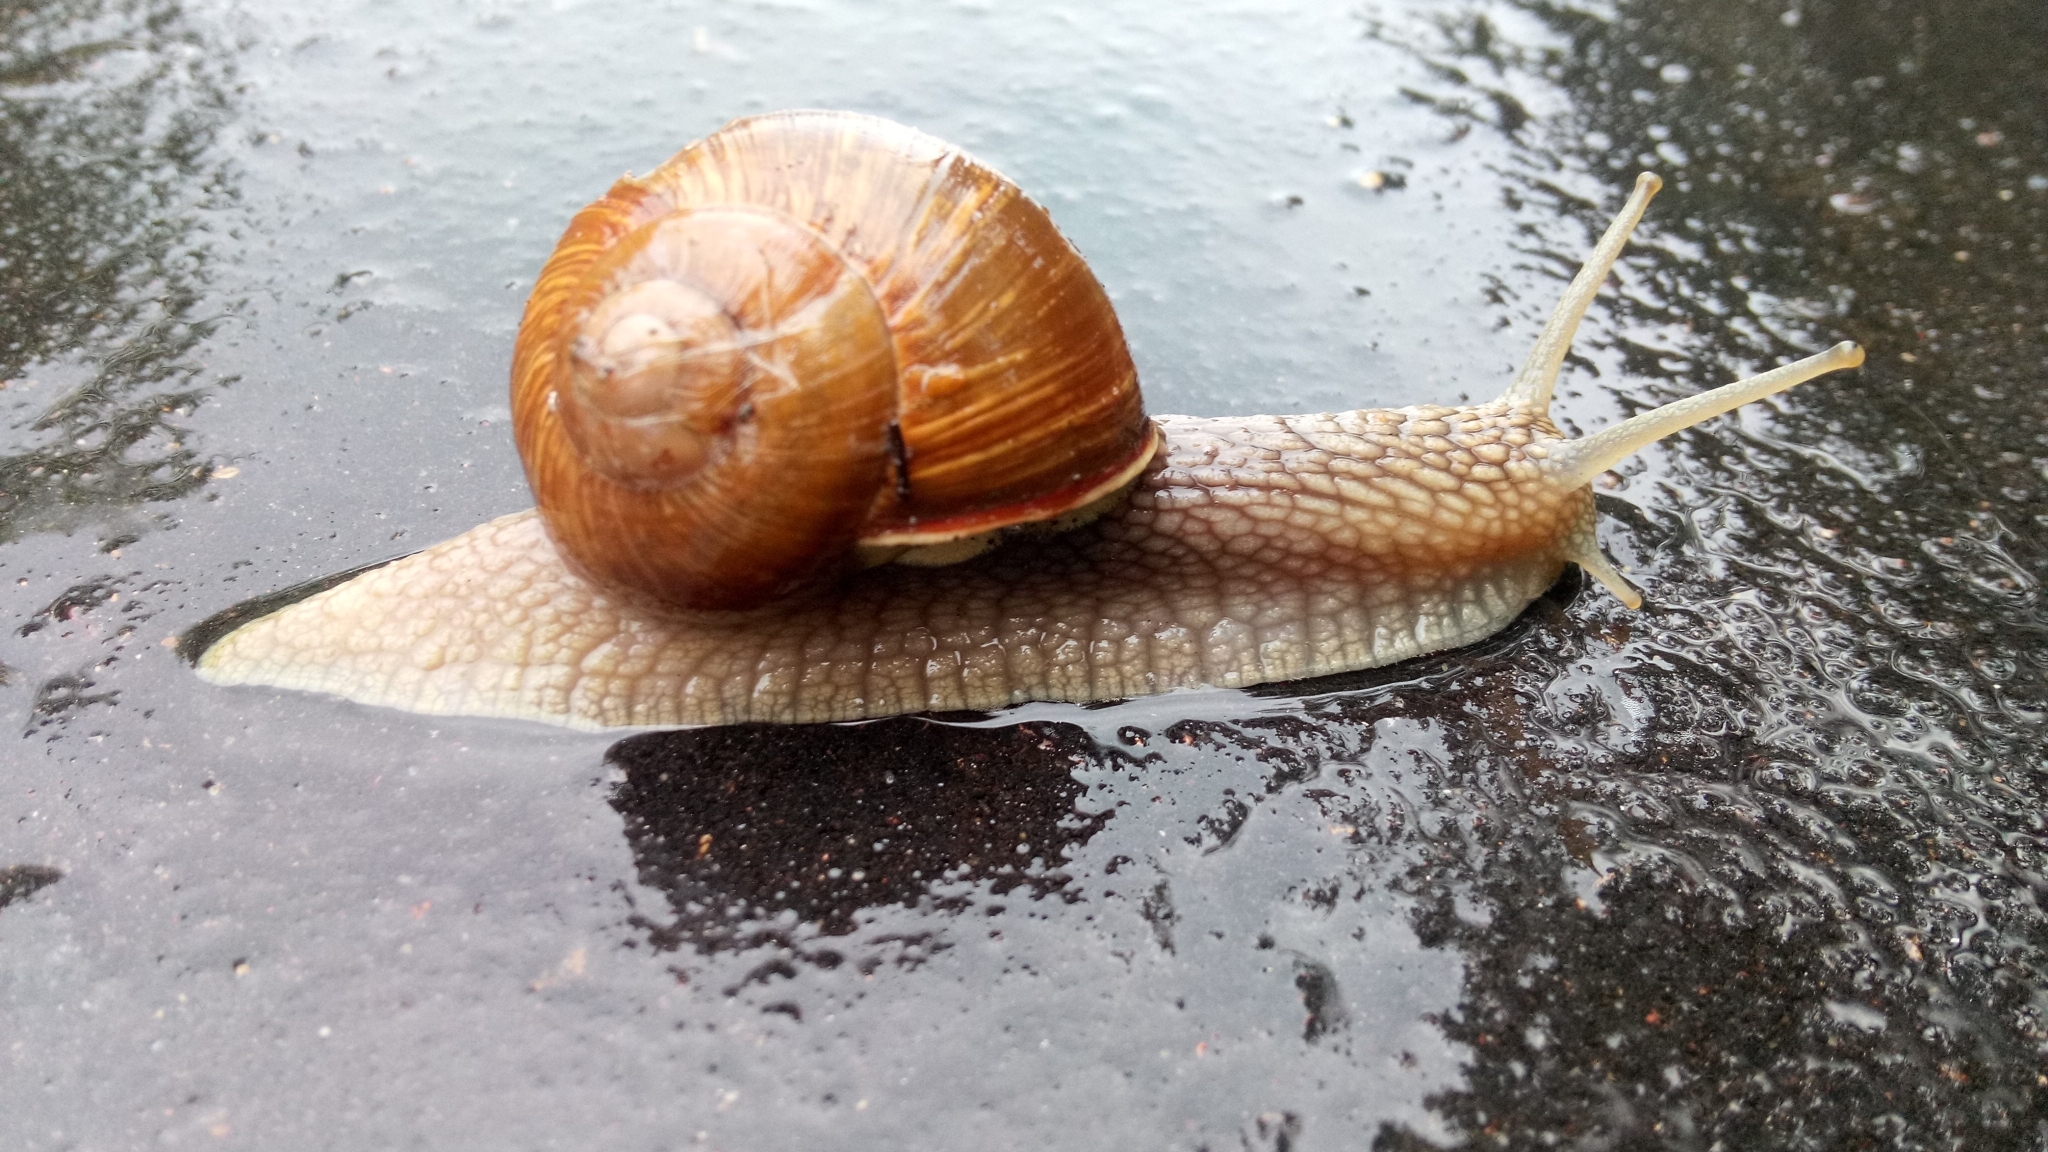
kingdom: Animalia
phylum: Mollusca
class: Gastropoda
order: Stylommatophora
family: Helicidae
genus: Helix
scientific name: Helix pomatia
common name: Roman snail
